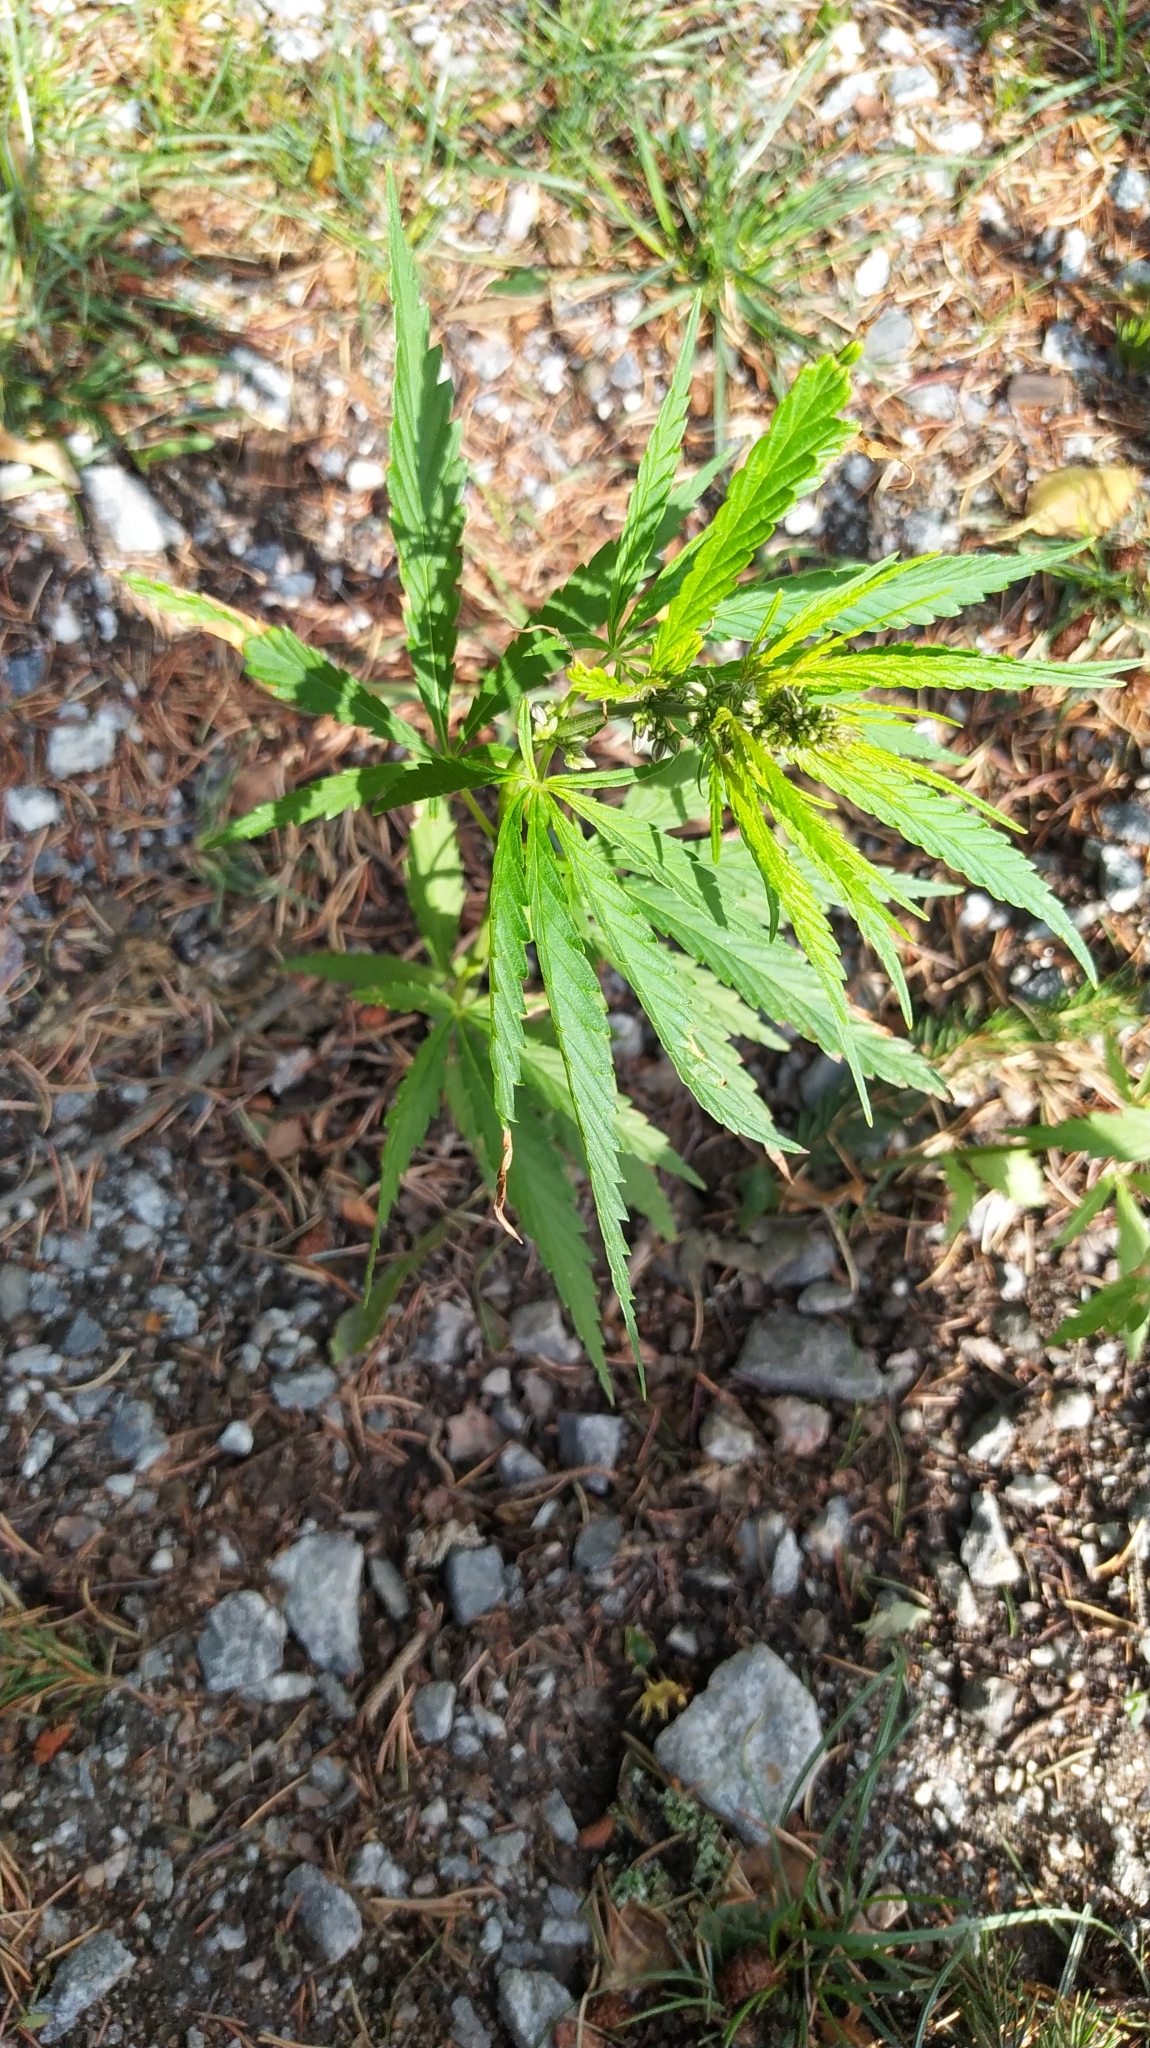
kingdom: Plantae
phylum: Tracheophyta
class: Magnoliopsida
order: Rosales
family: Cannabaceae
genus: Cannabis
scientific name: Cannabis sativa
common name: Hemp
